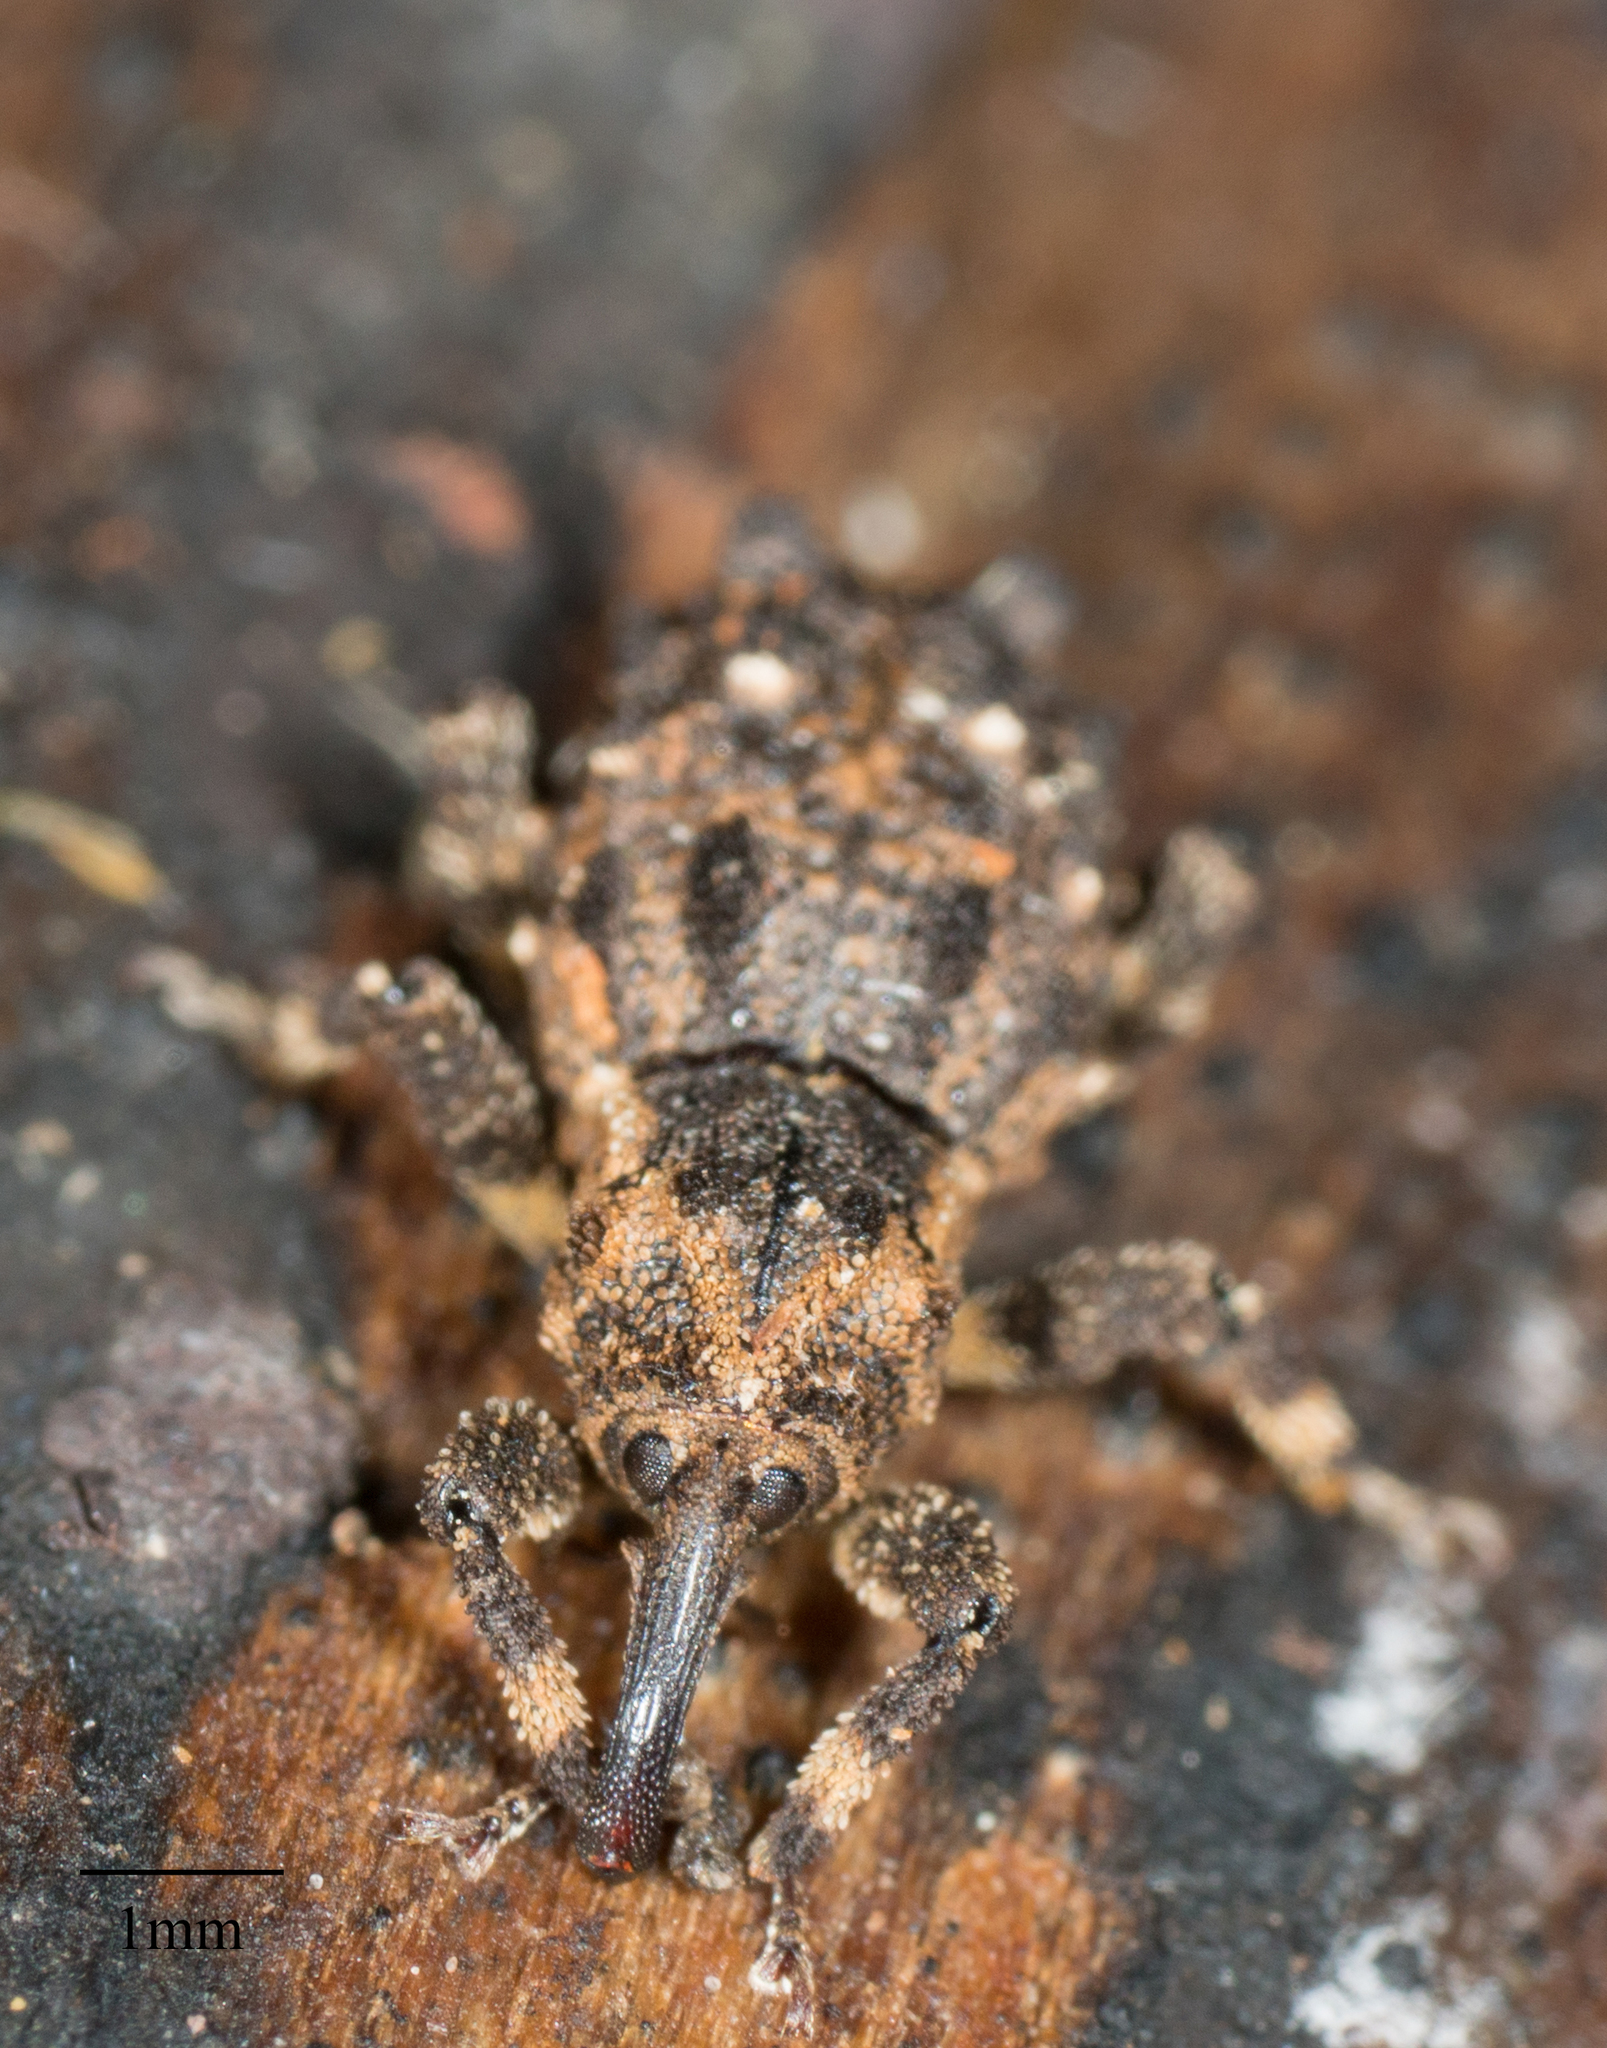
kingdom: Animalia
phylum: Arthropoda
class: Insecta
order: Coleoptera
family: Curculionidae
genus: Aparopion
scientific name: Aparopion horridus
